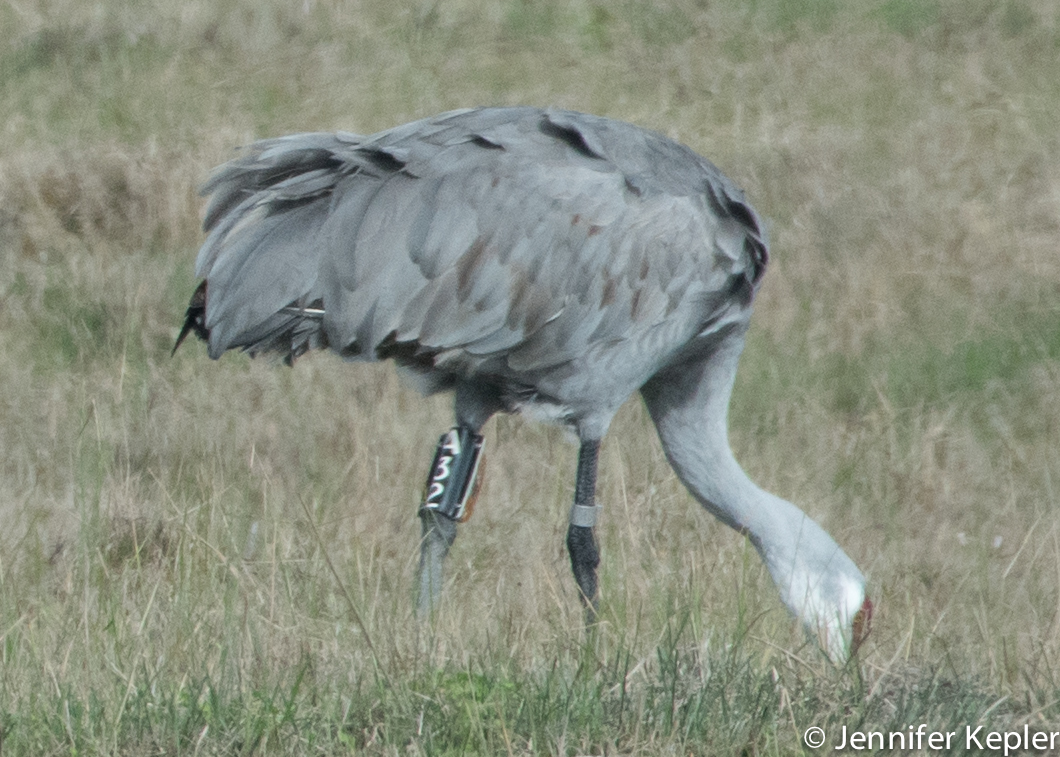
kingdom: Animalia
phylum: Chordata
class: Aves
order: Gruiformes
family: Gruidae
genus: Grus
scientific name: Grus canadensis
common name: Sandhill crane
